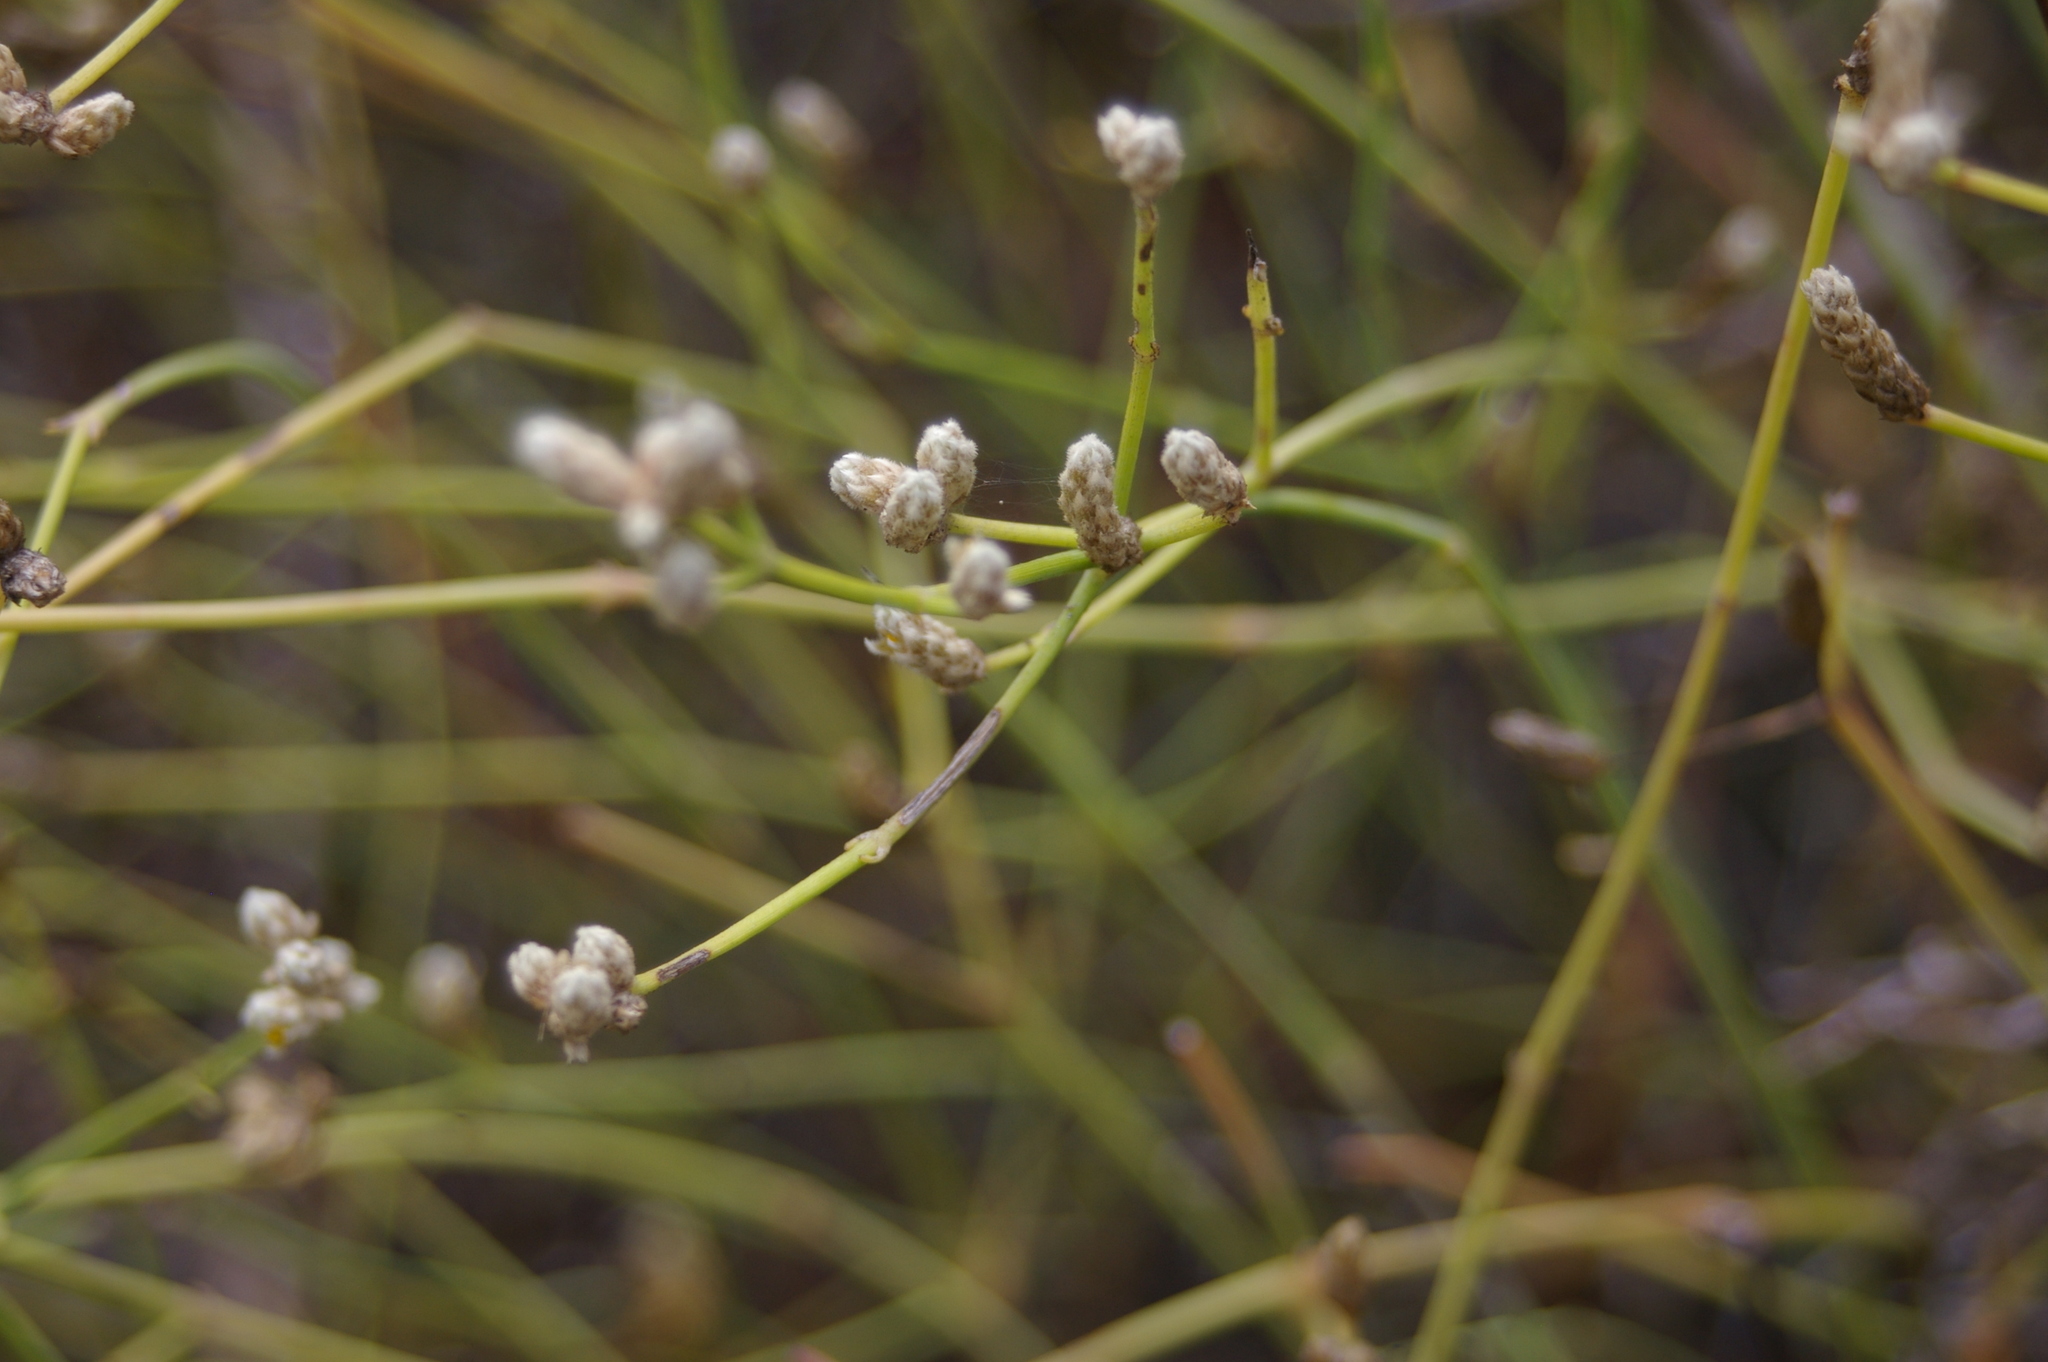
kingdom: Plantae
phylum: Tracheophyta
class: Magnoliopsida
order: Caryophyllales
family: Amaranthaceae
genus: Alternanthera
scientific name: Alternanthera filifolia
